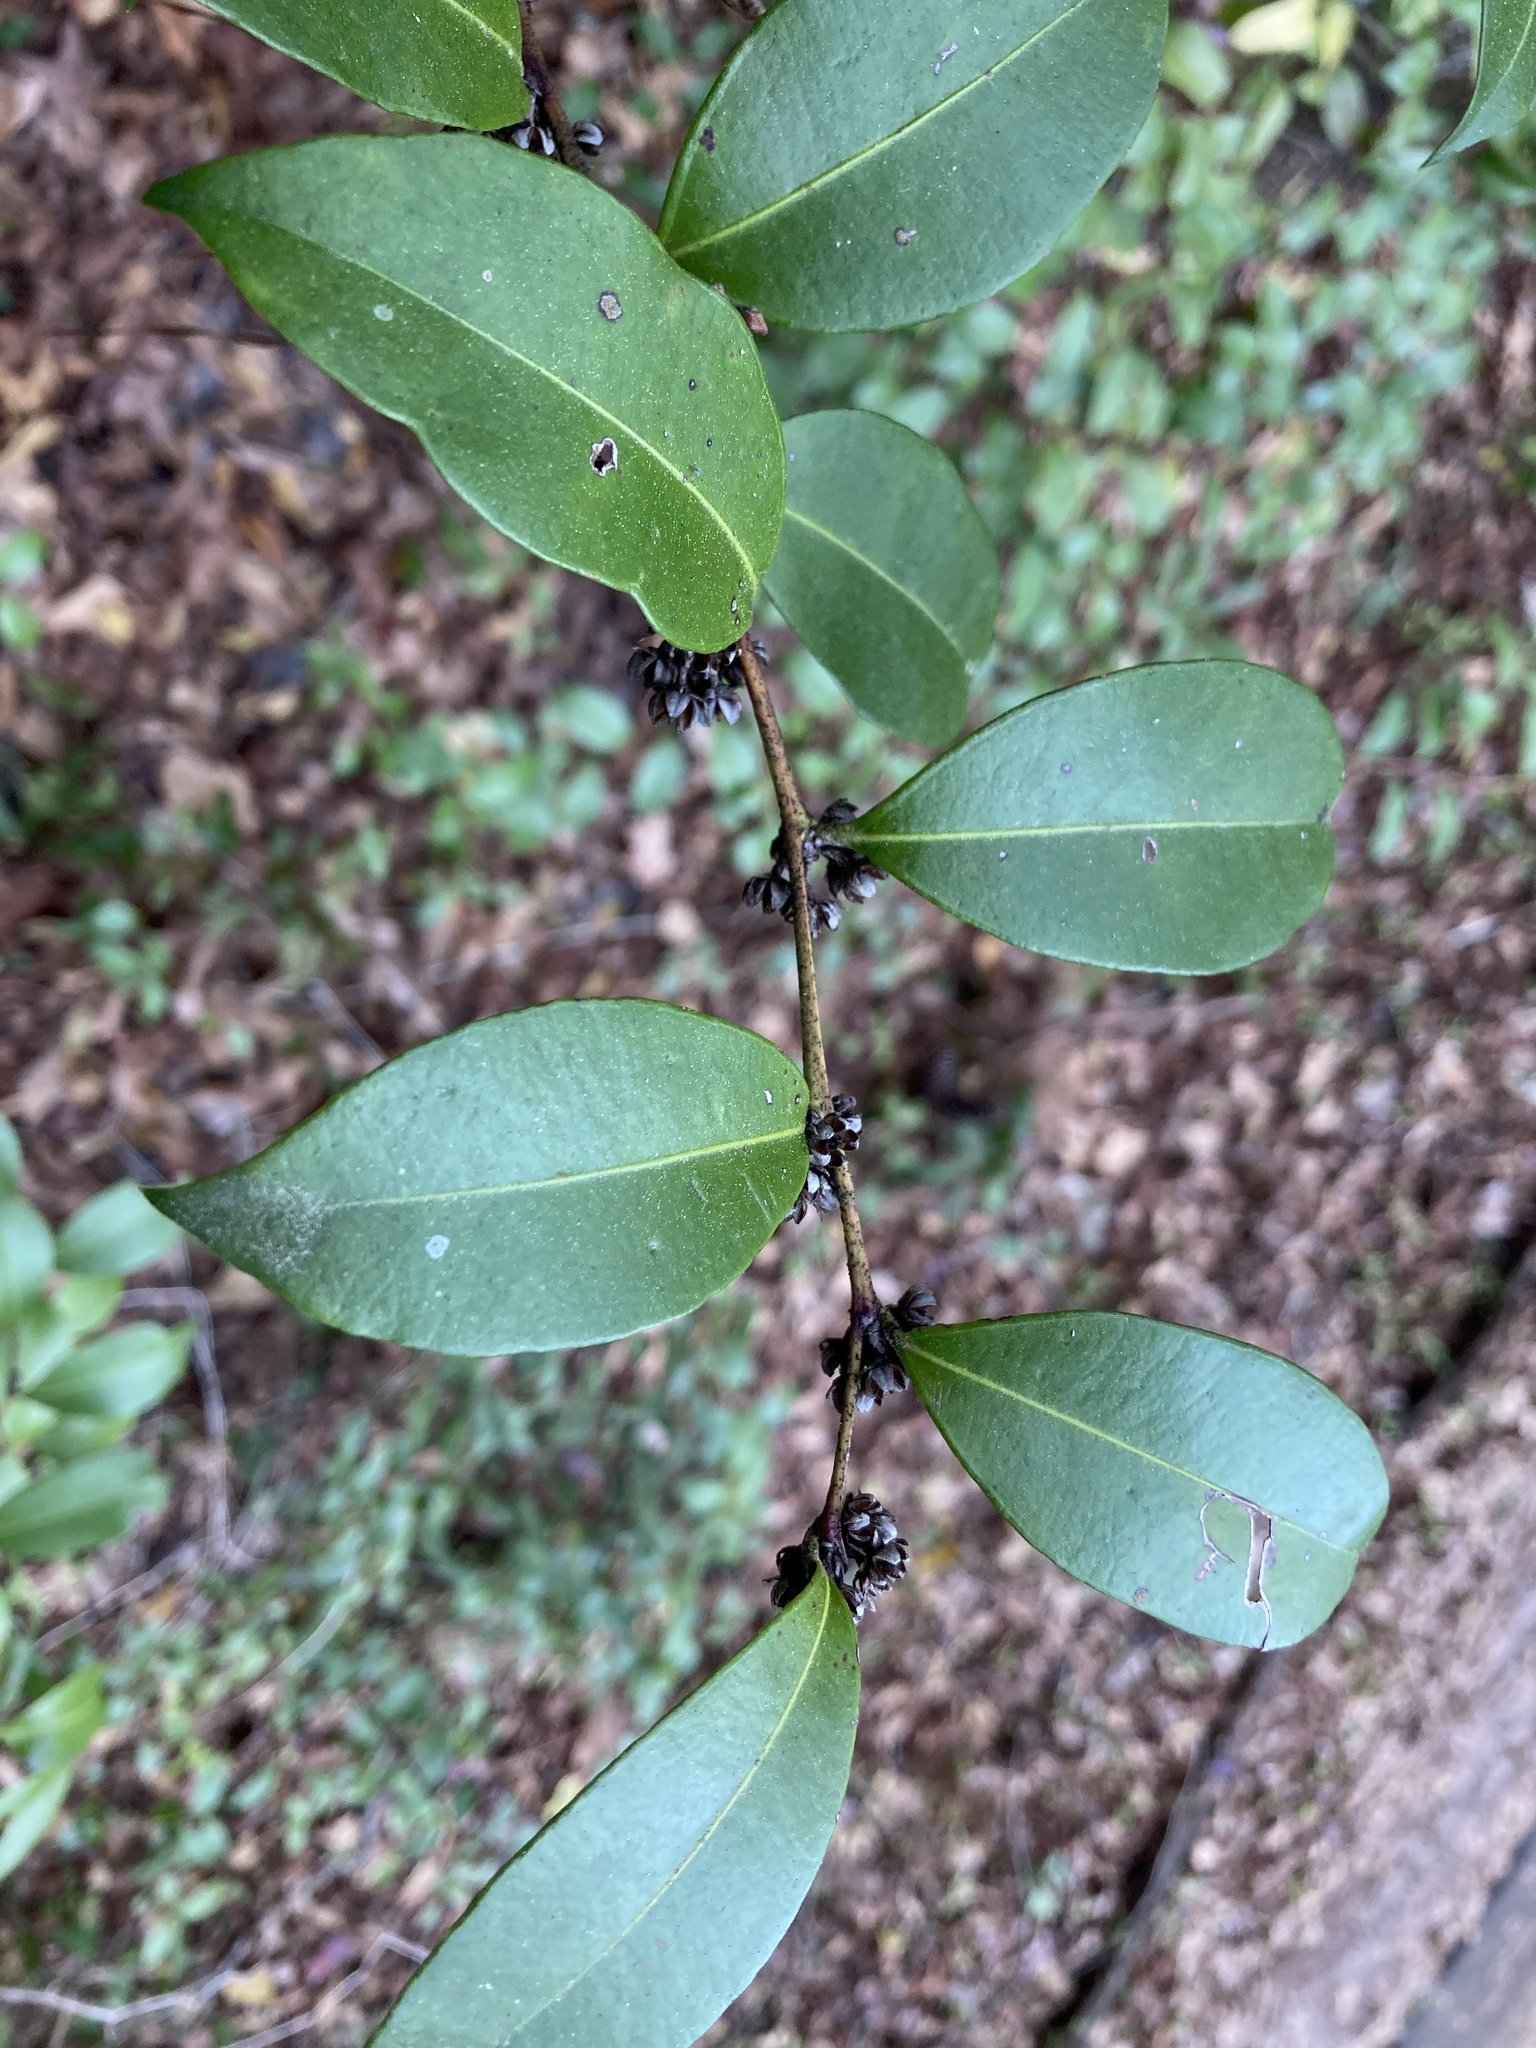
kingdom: Plantae
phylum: Tracheophyta
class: Magnoliopsida
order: Ericales
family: Ericaceae
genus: Lyonia
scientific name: Lyonia lucida
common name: Fetterbush
